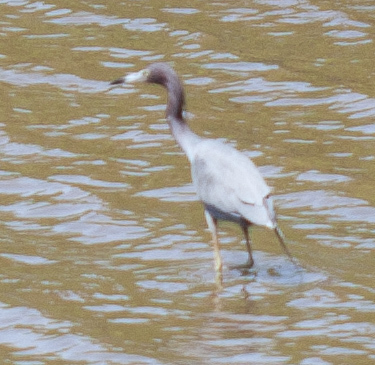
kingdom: Animalia
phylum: Chordata
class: Aves
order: Pelecaniformes
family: Ardeidae
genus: Egretta
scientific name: Egretta caerulea
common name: Little blue heron
